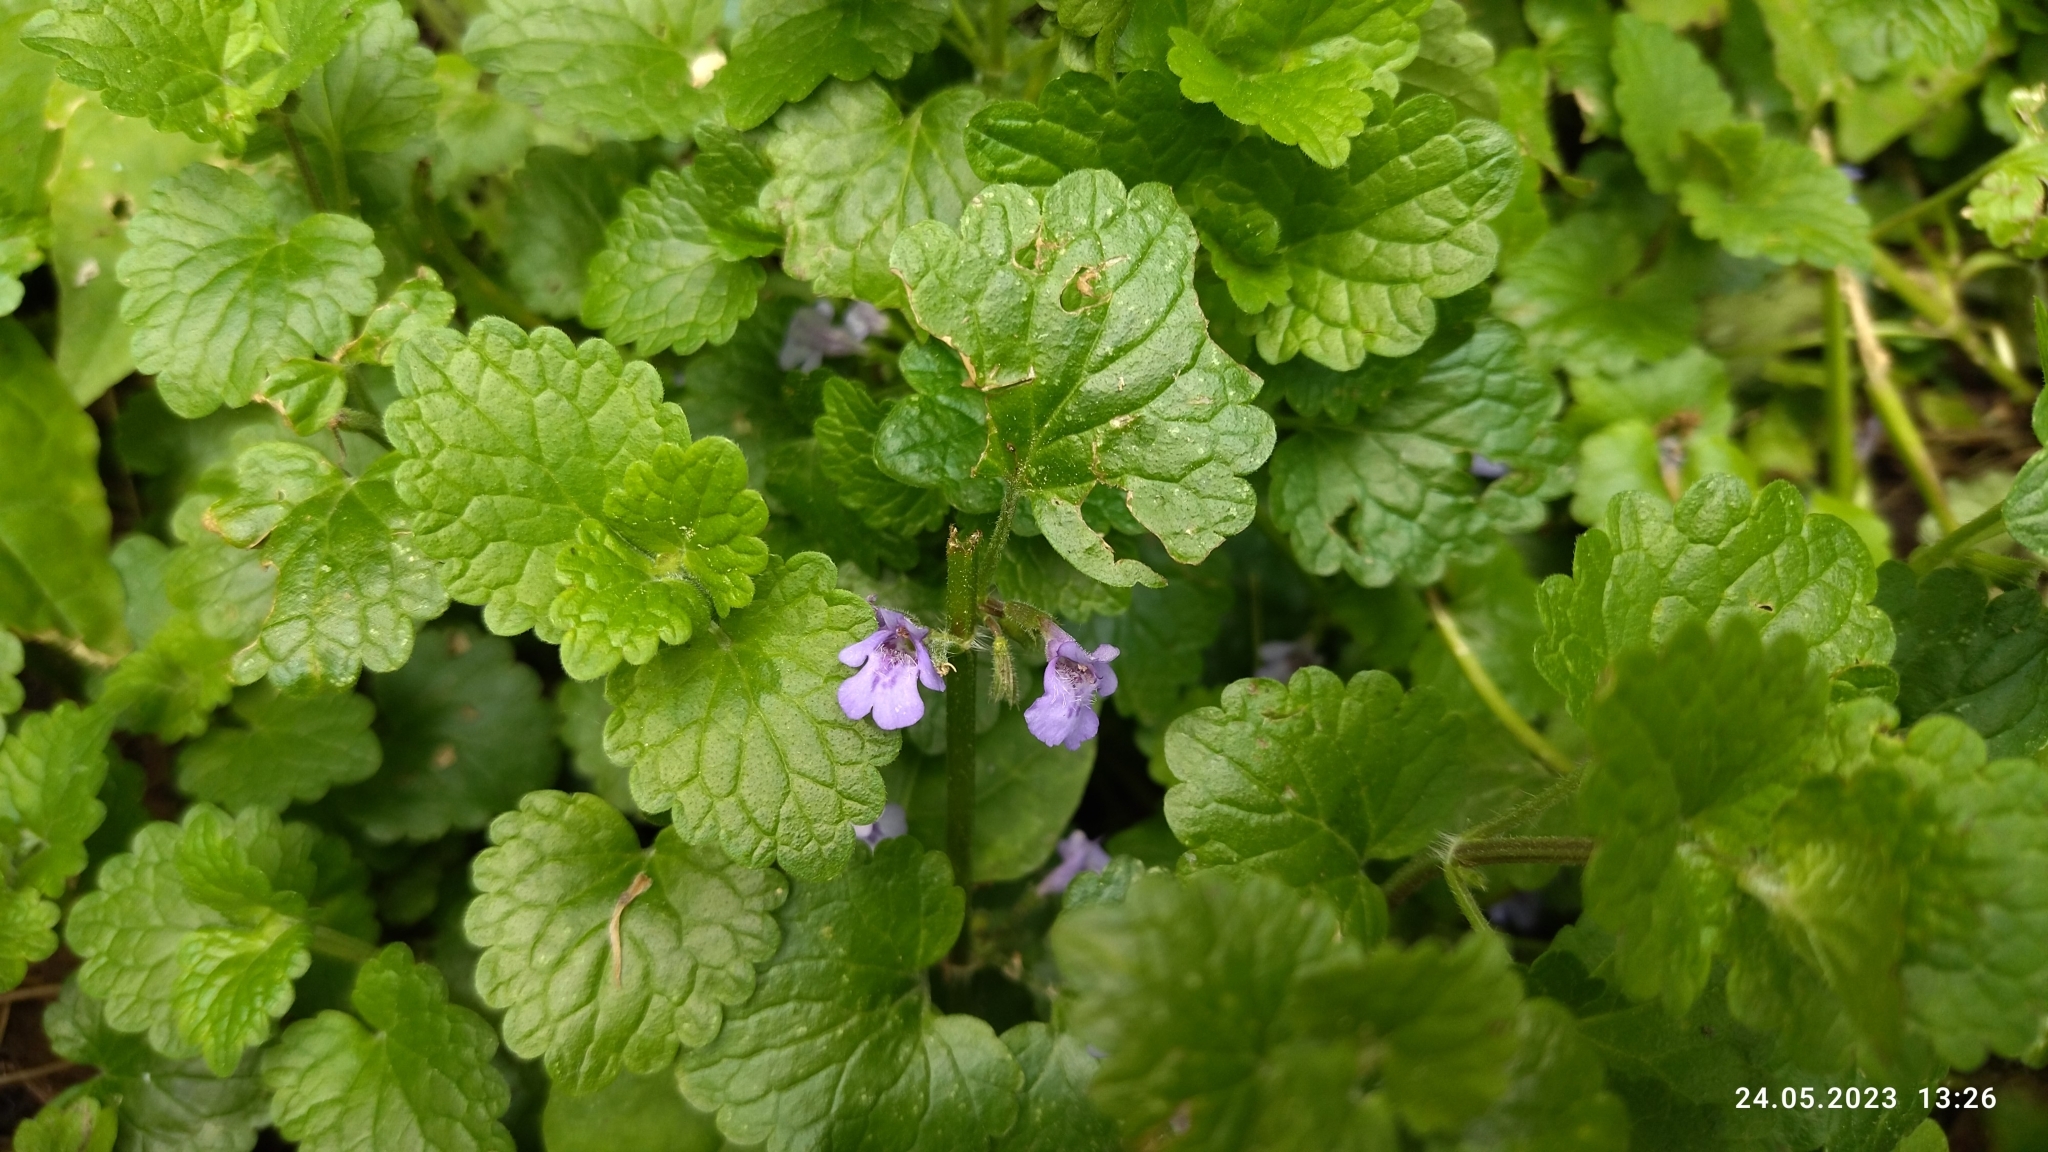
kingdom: Plantae
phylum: Tracheophyta
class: Magnoliopsida
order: Lamiales
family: Lamiaceae
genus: Glechoma
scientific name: Glechoma hederacea
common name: Ground ivy
